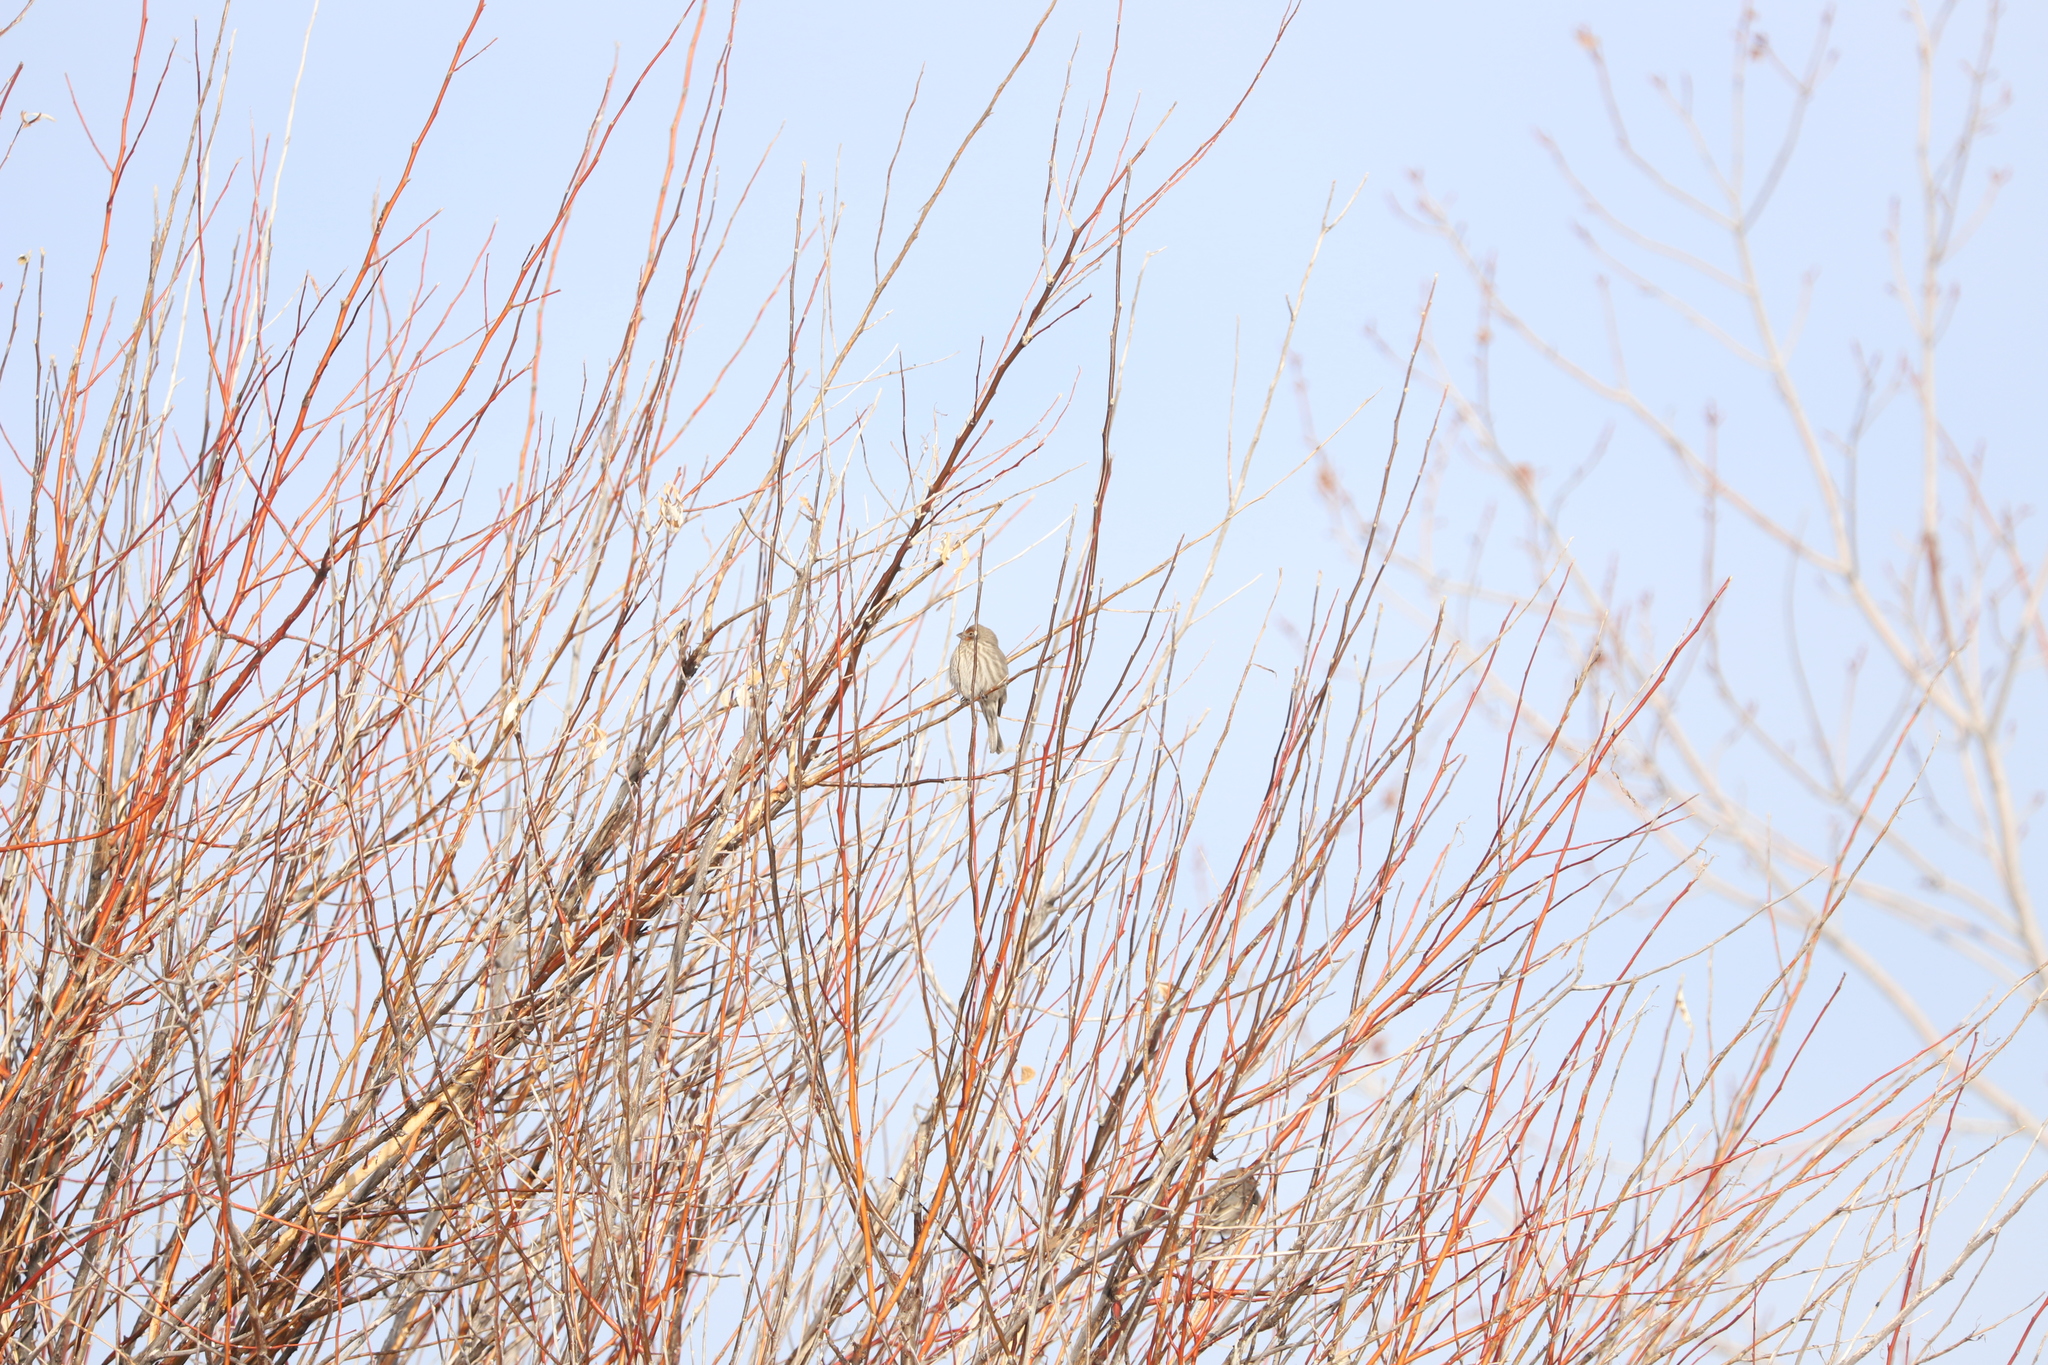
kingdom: Animalia
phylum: Chordata
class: Aves
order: Passeriformes
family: Fringillidae
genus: Haemorhous
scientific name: Haemorhous mexicanus
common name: House finch
